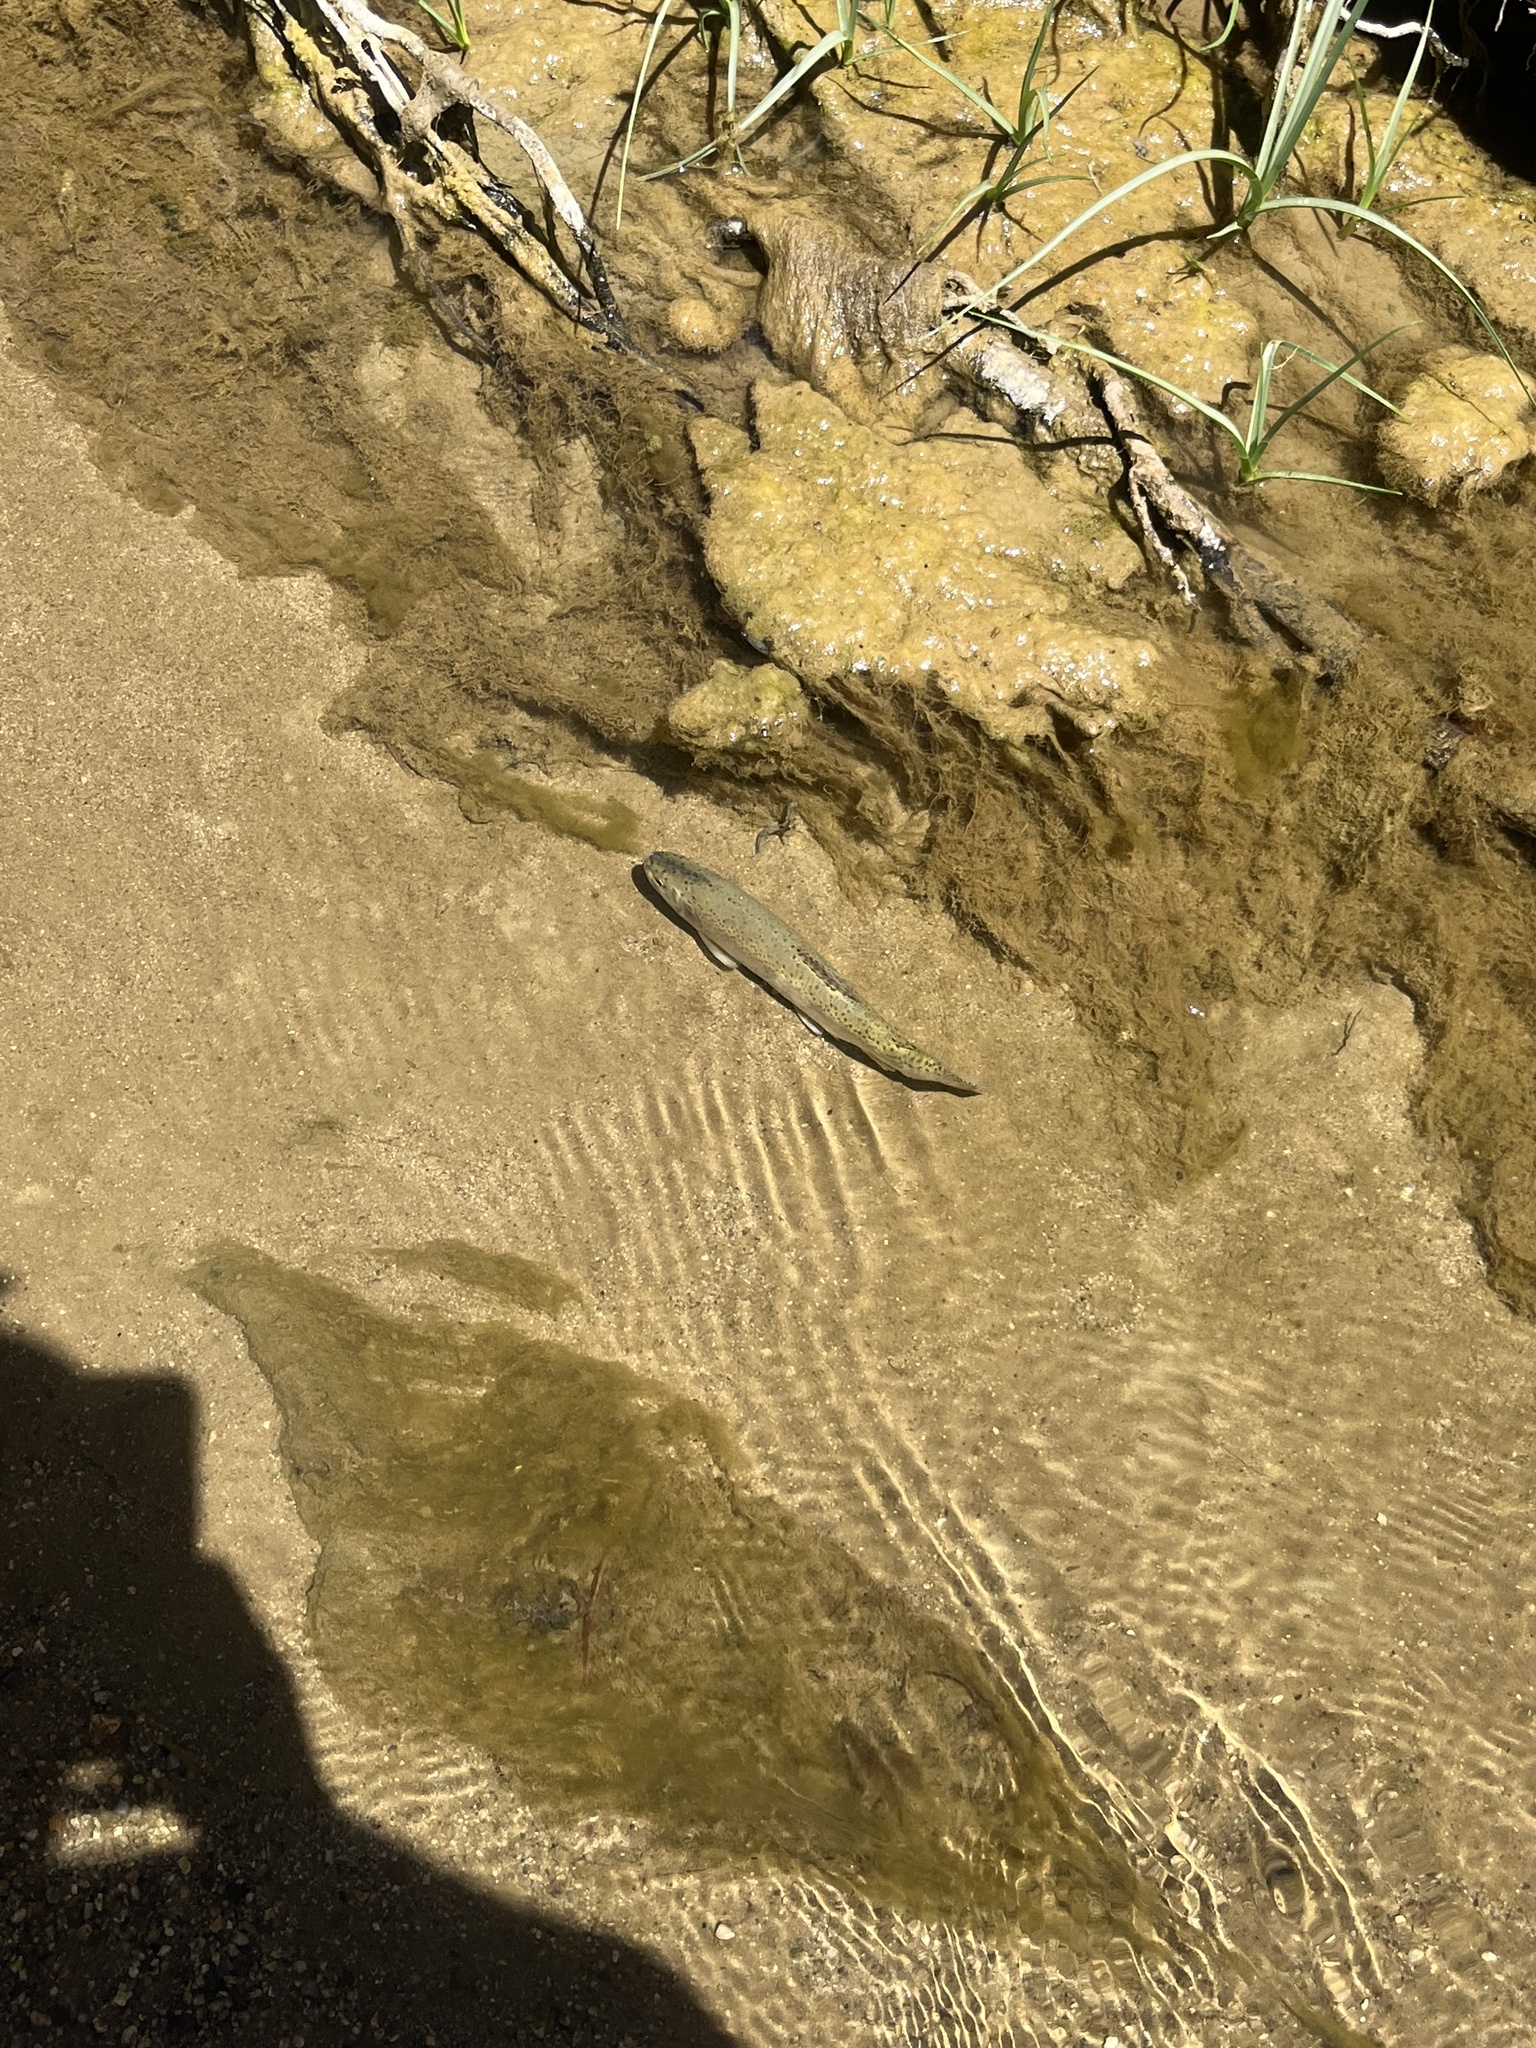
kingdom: Animalia
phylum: Chordata
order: Salmoniformes
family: Salmonidae
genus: Oncorhynchus
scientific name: Oncorhynchus mykiss
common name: Rainbow trout
